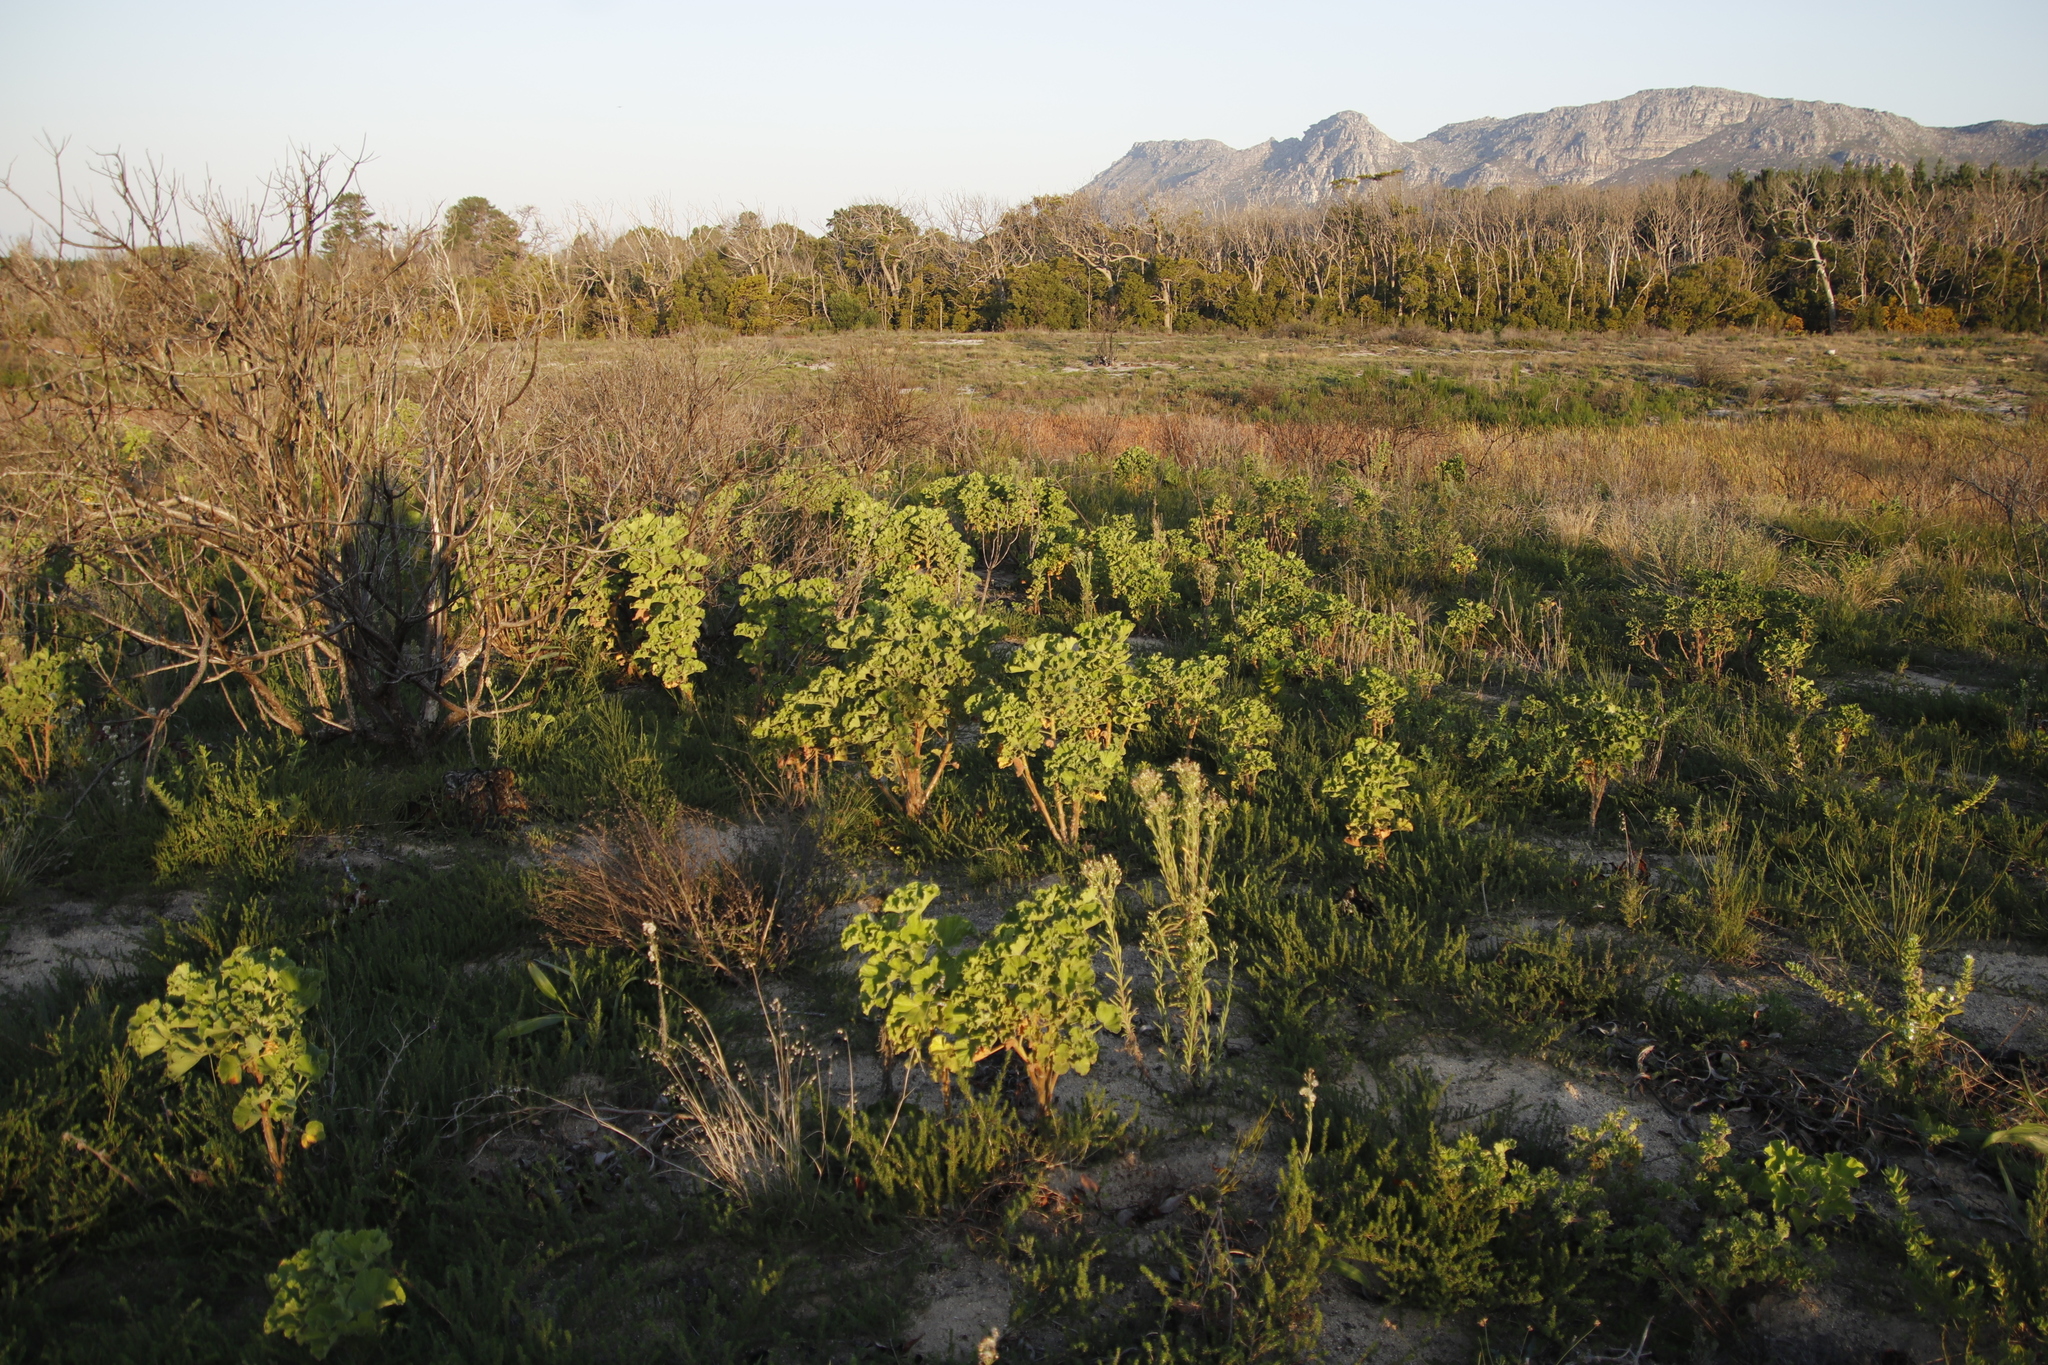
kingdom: Plantae
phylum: Tracheophyta
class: Magnoliopsida
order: Geraniales
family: Geraniaceae
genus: Pelargonium
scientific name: Pelargonium cucullatum
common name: Tree pelargonium
